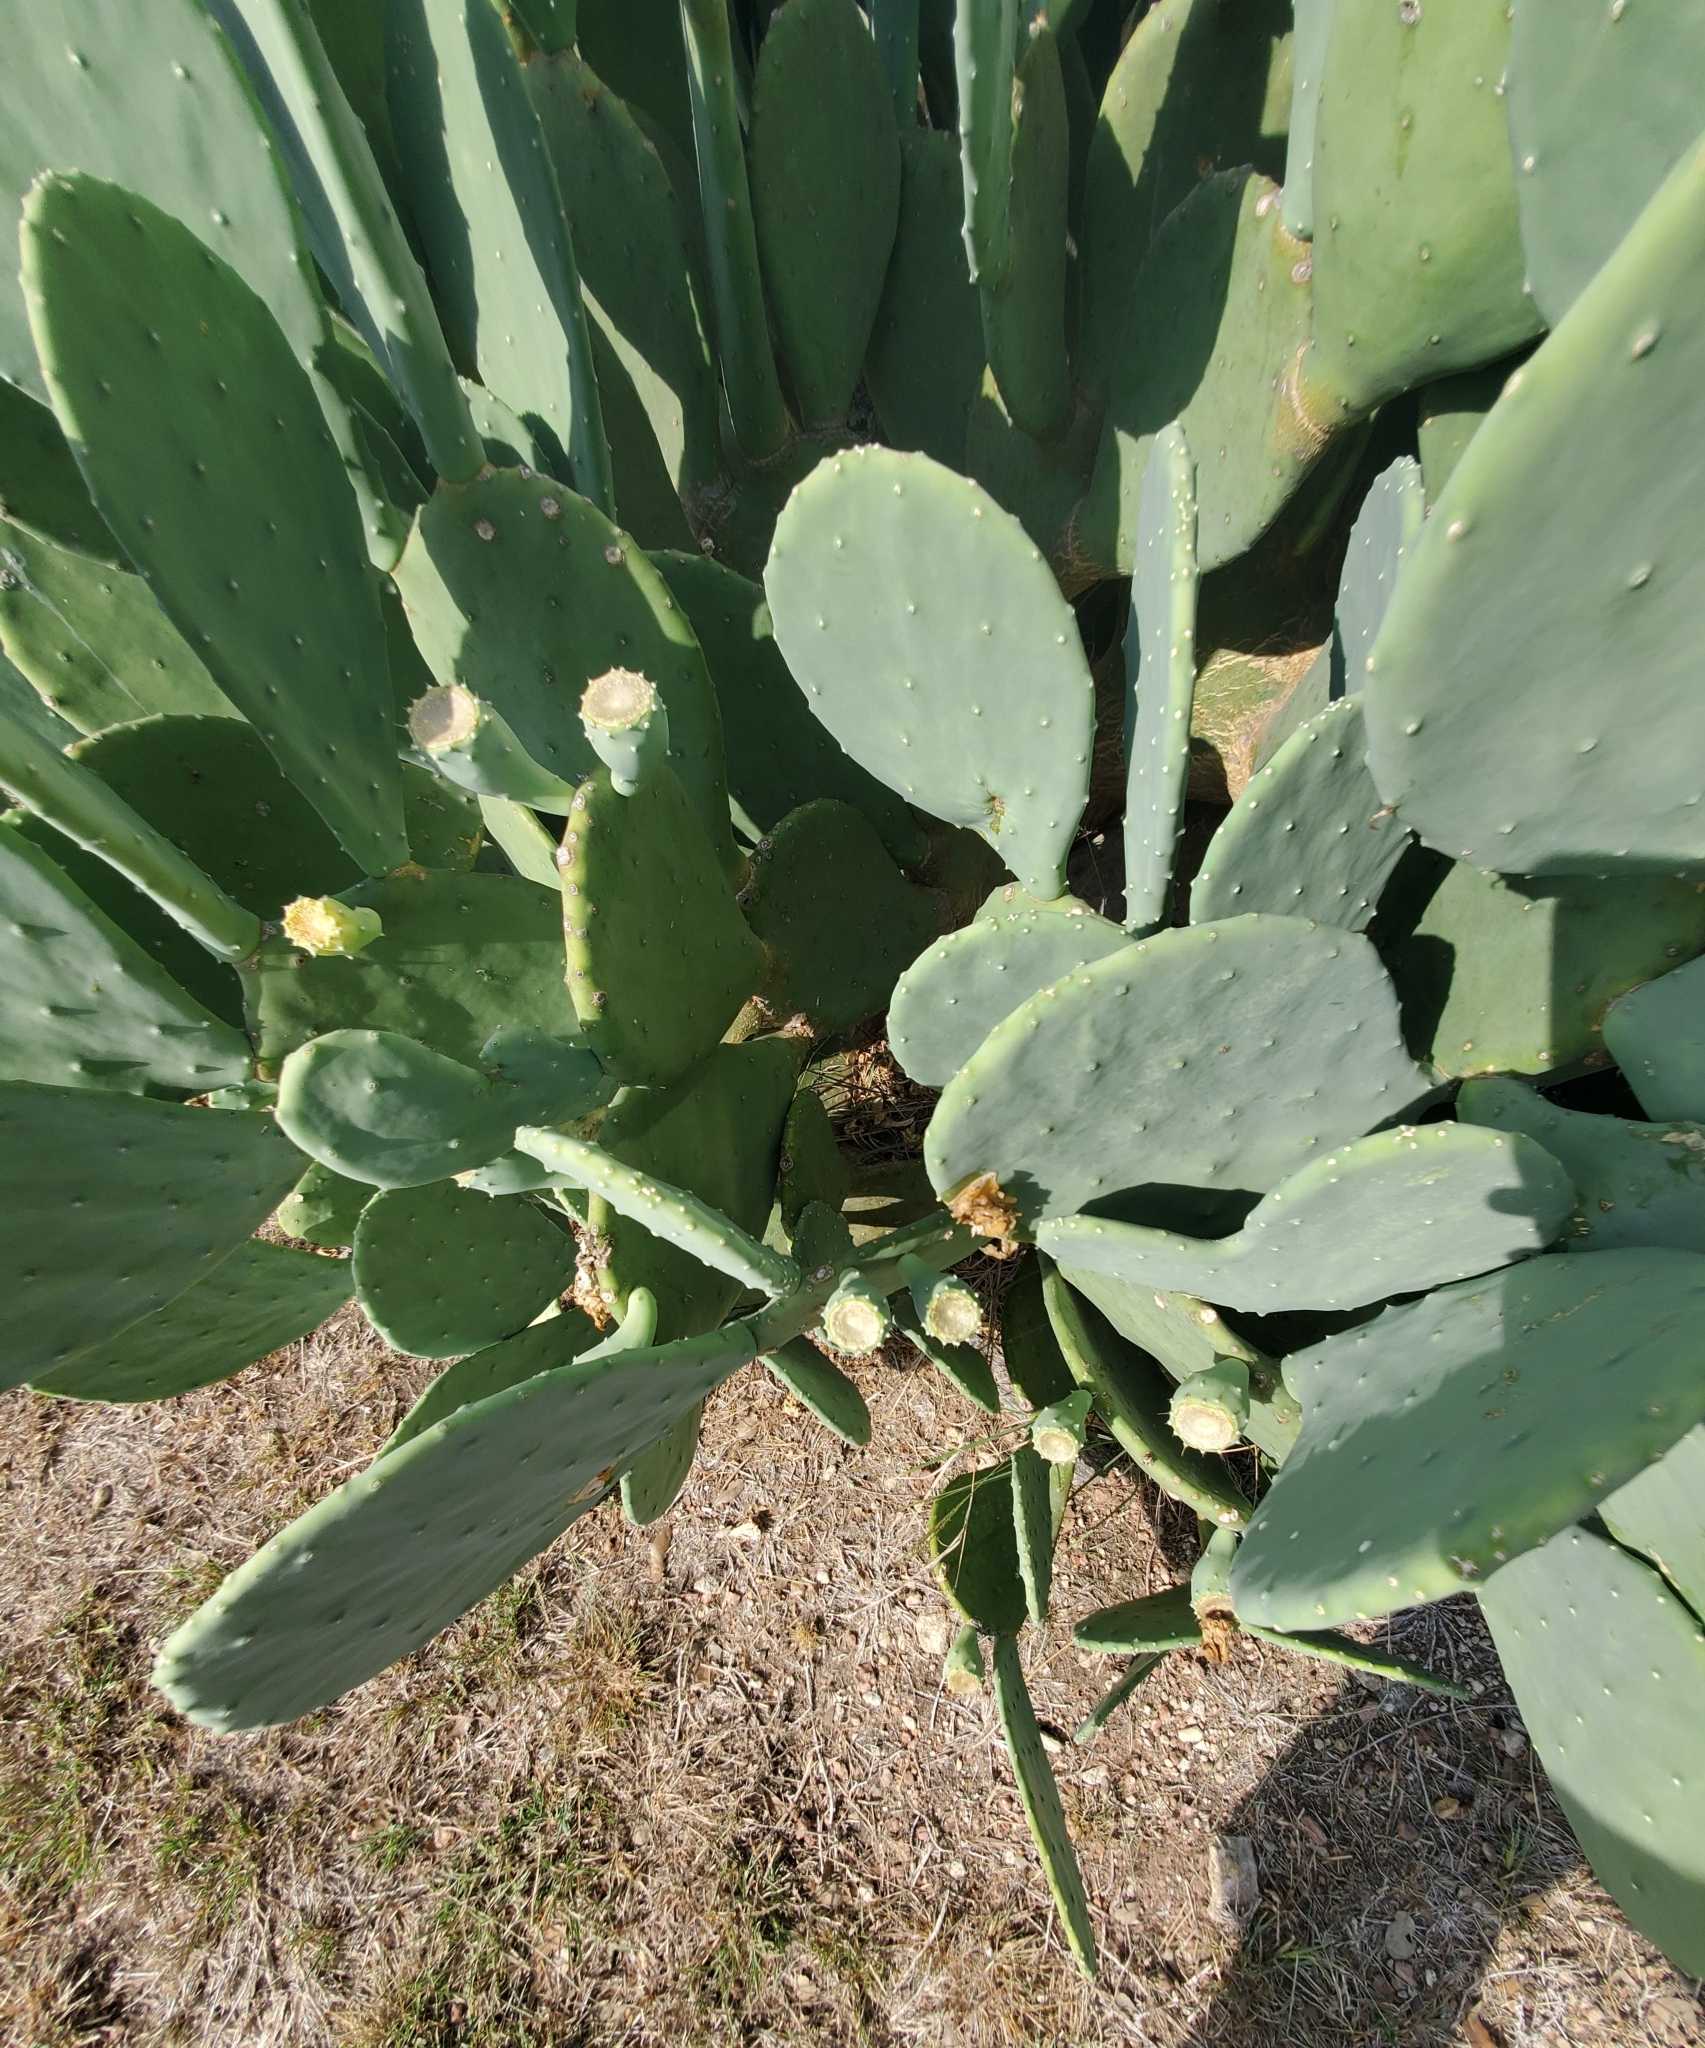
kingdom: Plantae
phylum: Tracheophyta
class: Magnoliopsida
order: Caryophyllales
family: Cactaceae
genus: Opuntia
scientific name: Opuntia engelmannii
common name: Cactus-apple
